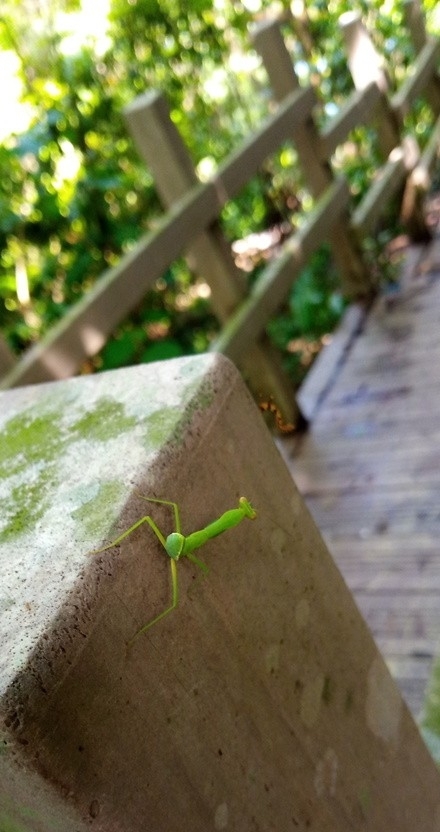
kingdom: Animalia
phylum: Arthropoda
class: Insecta
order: Mantodea
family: Mantidae
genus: Hierodula
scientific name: Hierodula patellifera
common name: Asian mantis
